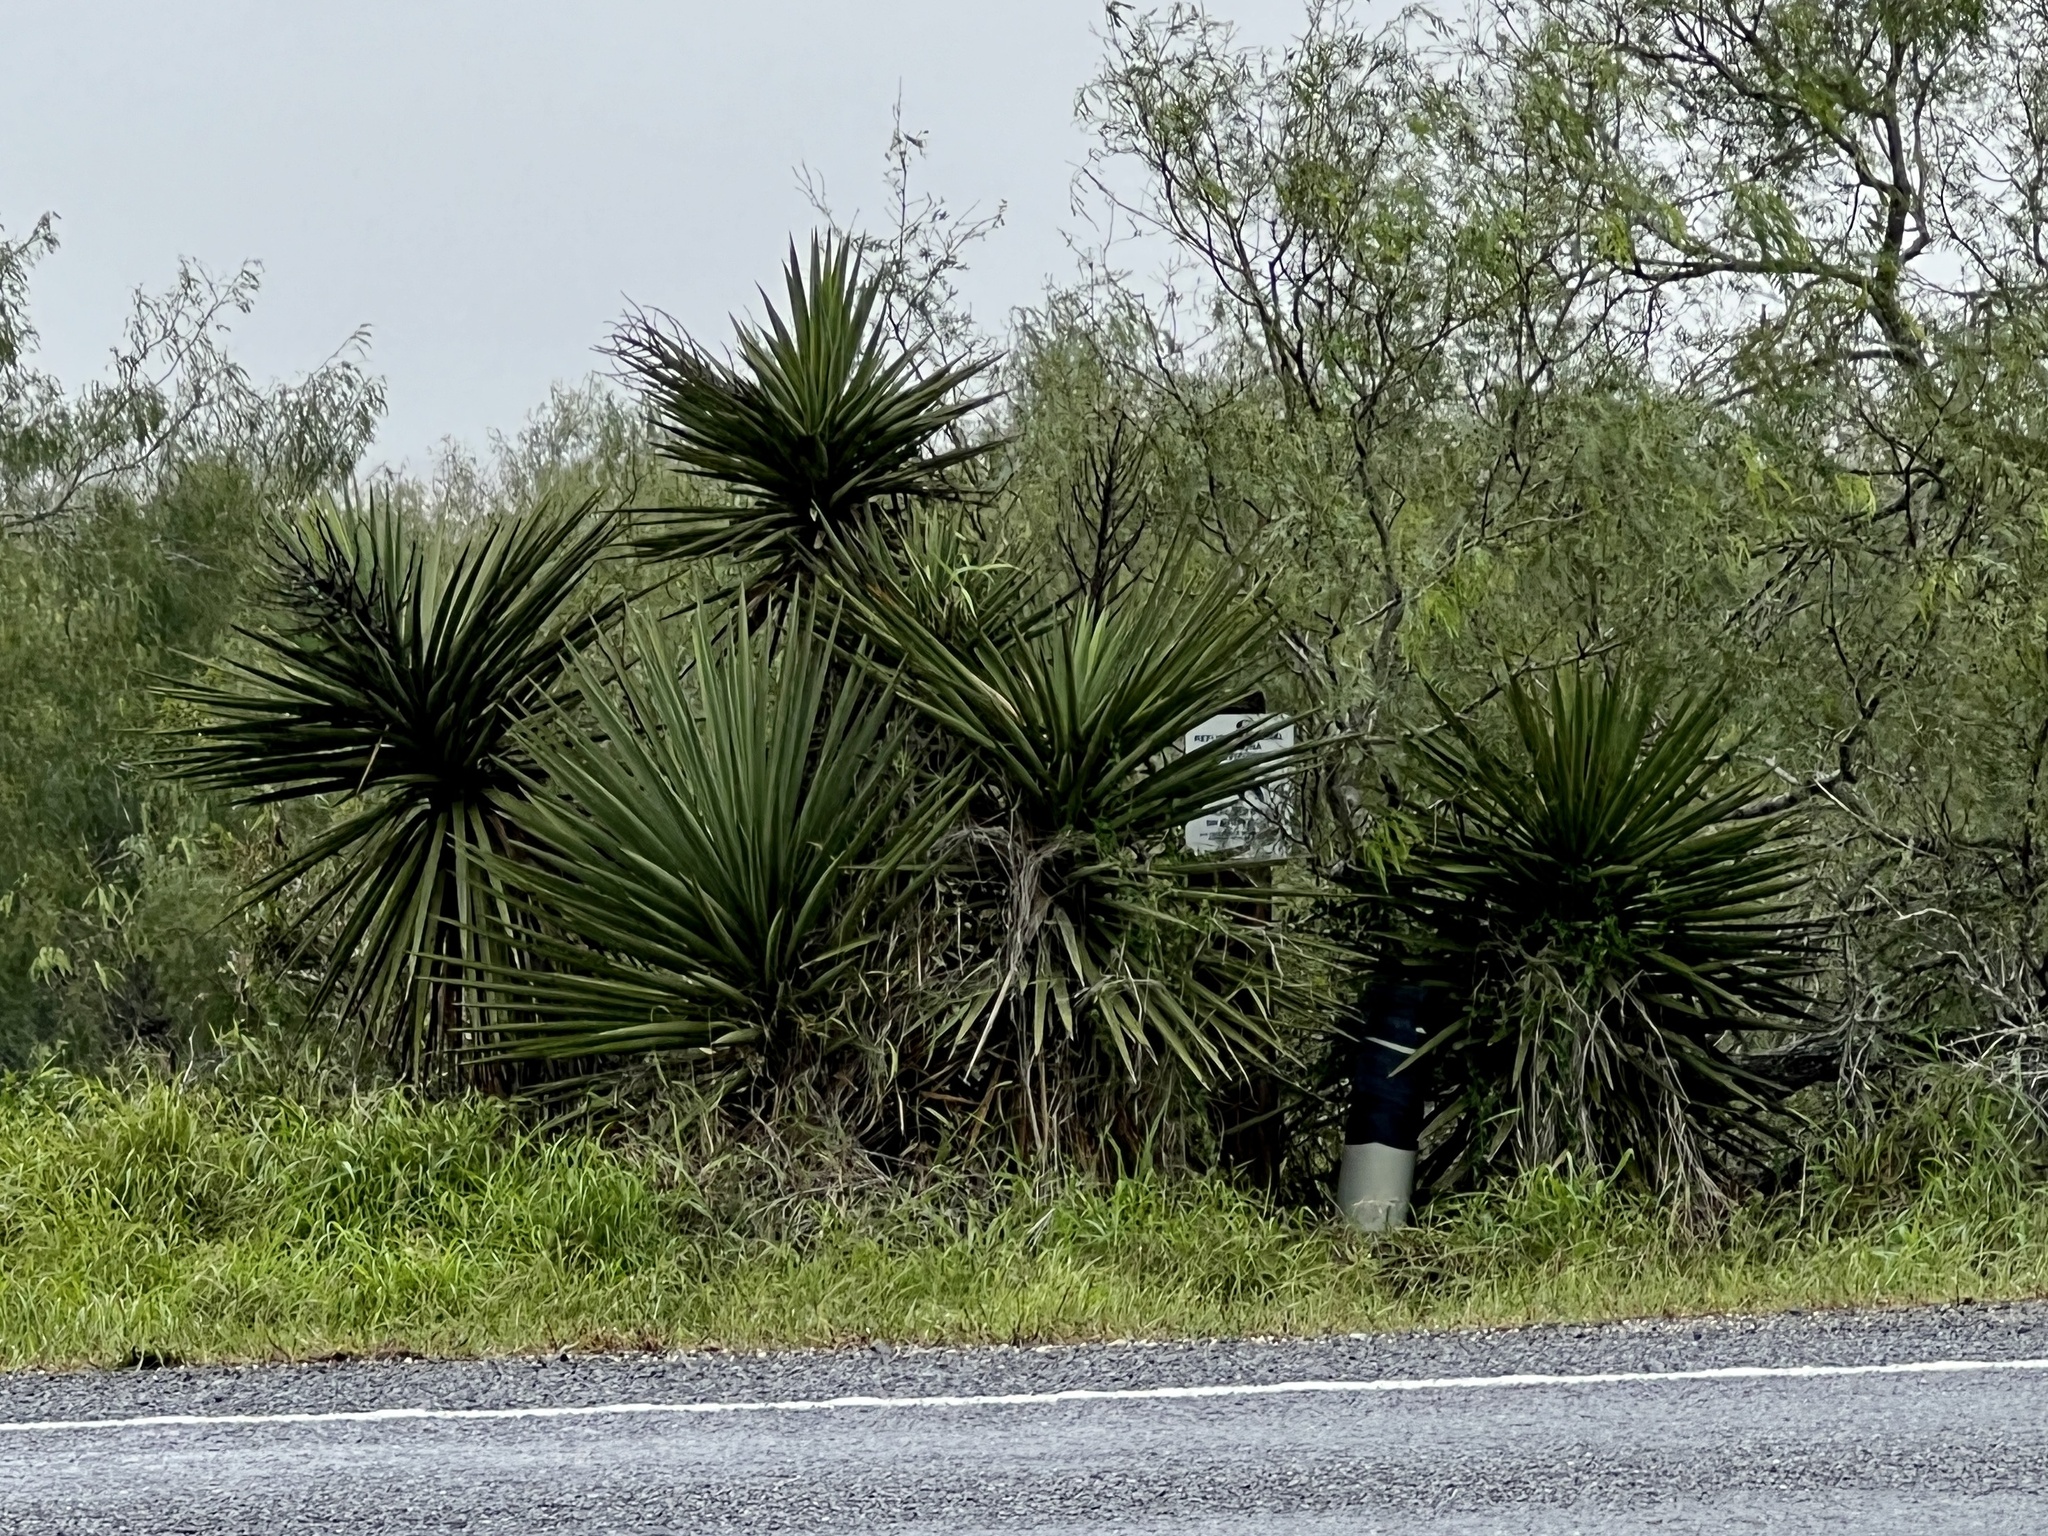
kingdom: Plantae
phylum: Tracheophyta
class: Liliopsida
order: Asparagales
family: Asparagaceae
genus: Yucca
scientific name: Yucca treculiana
